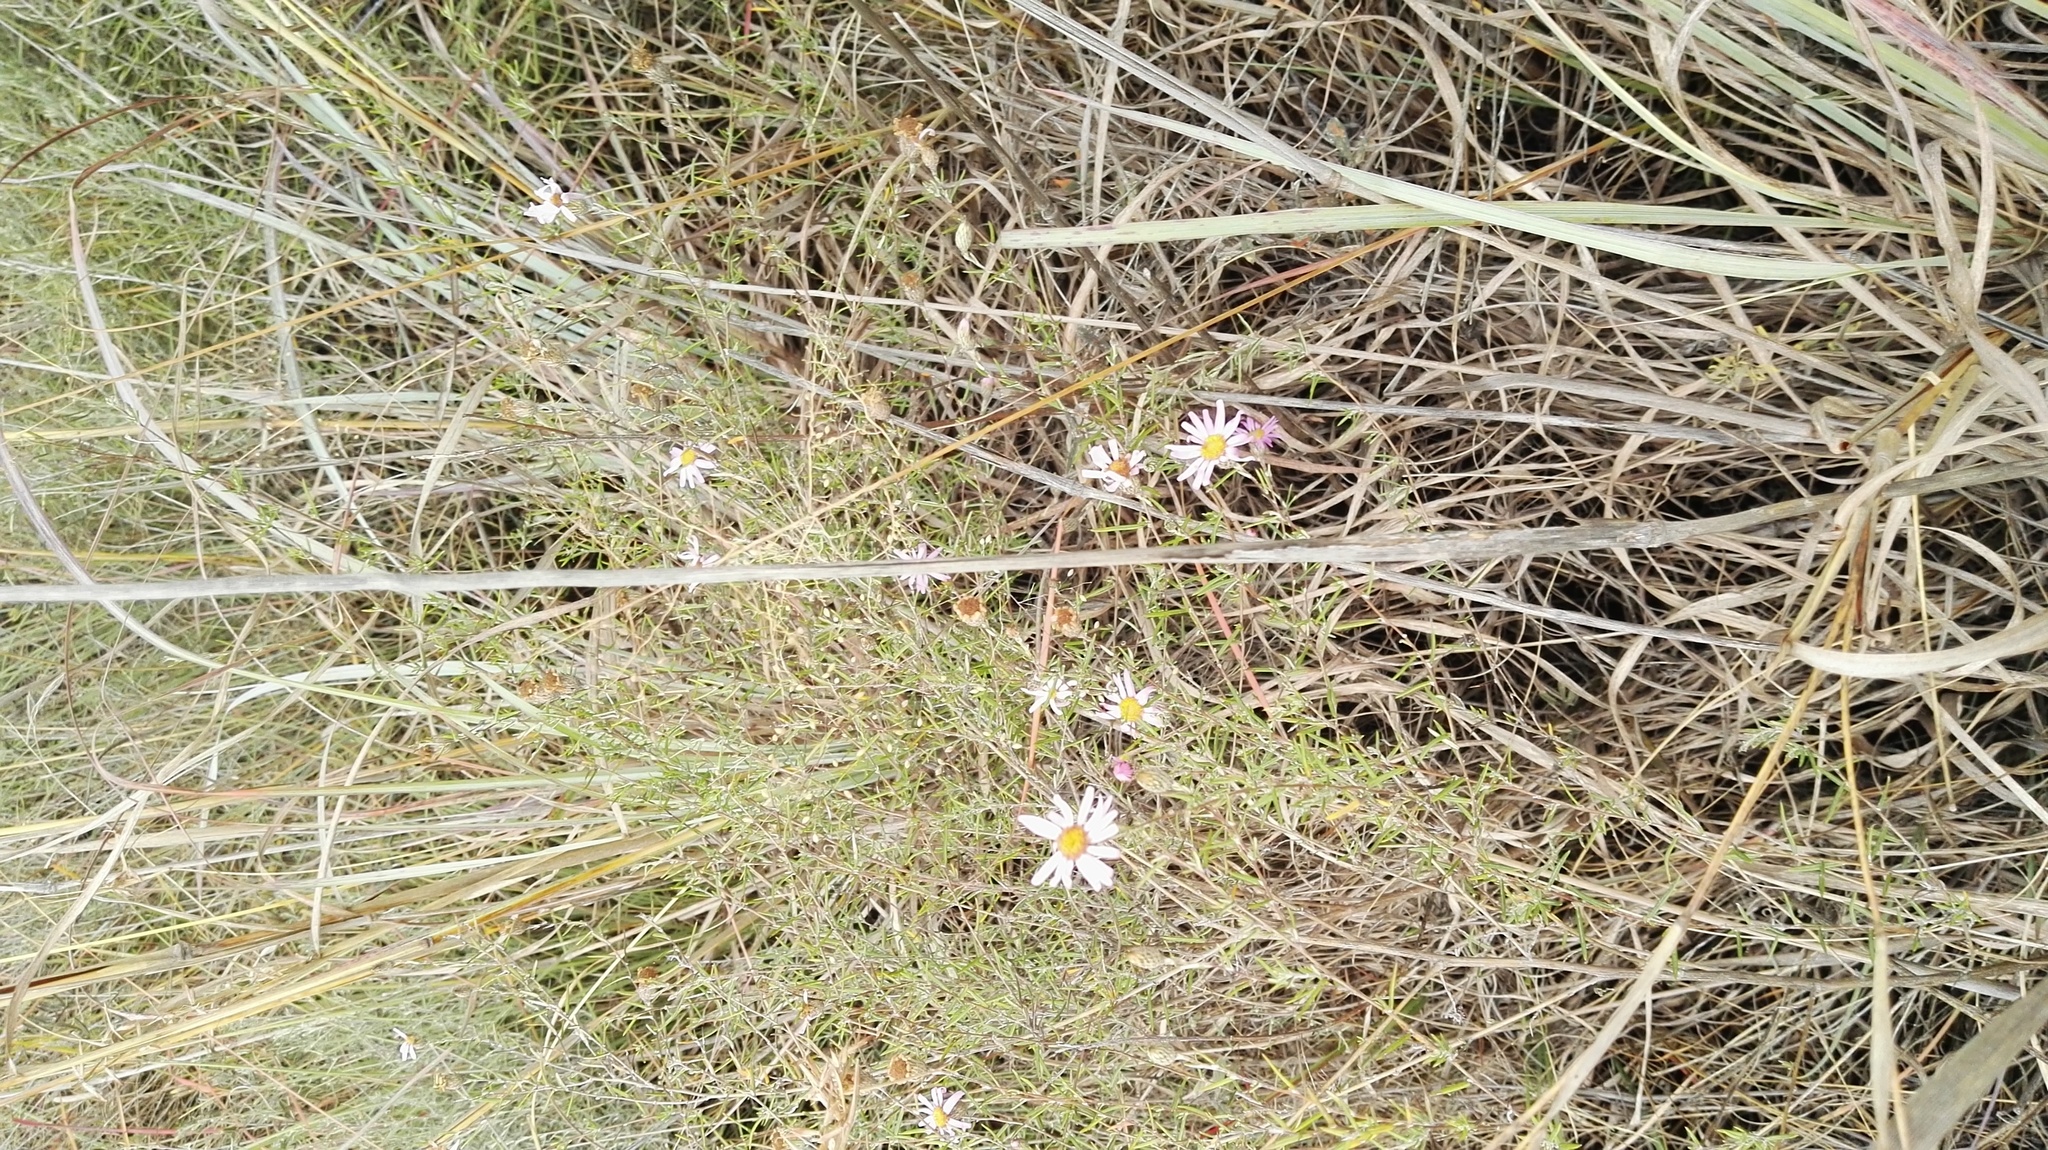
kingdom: Plantae
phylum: Tracheophyta
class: Magnoliopsida
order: Asterales
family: Asteraceae
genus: Athrixia
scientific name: Athrixia elata
